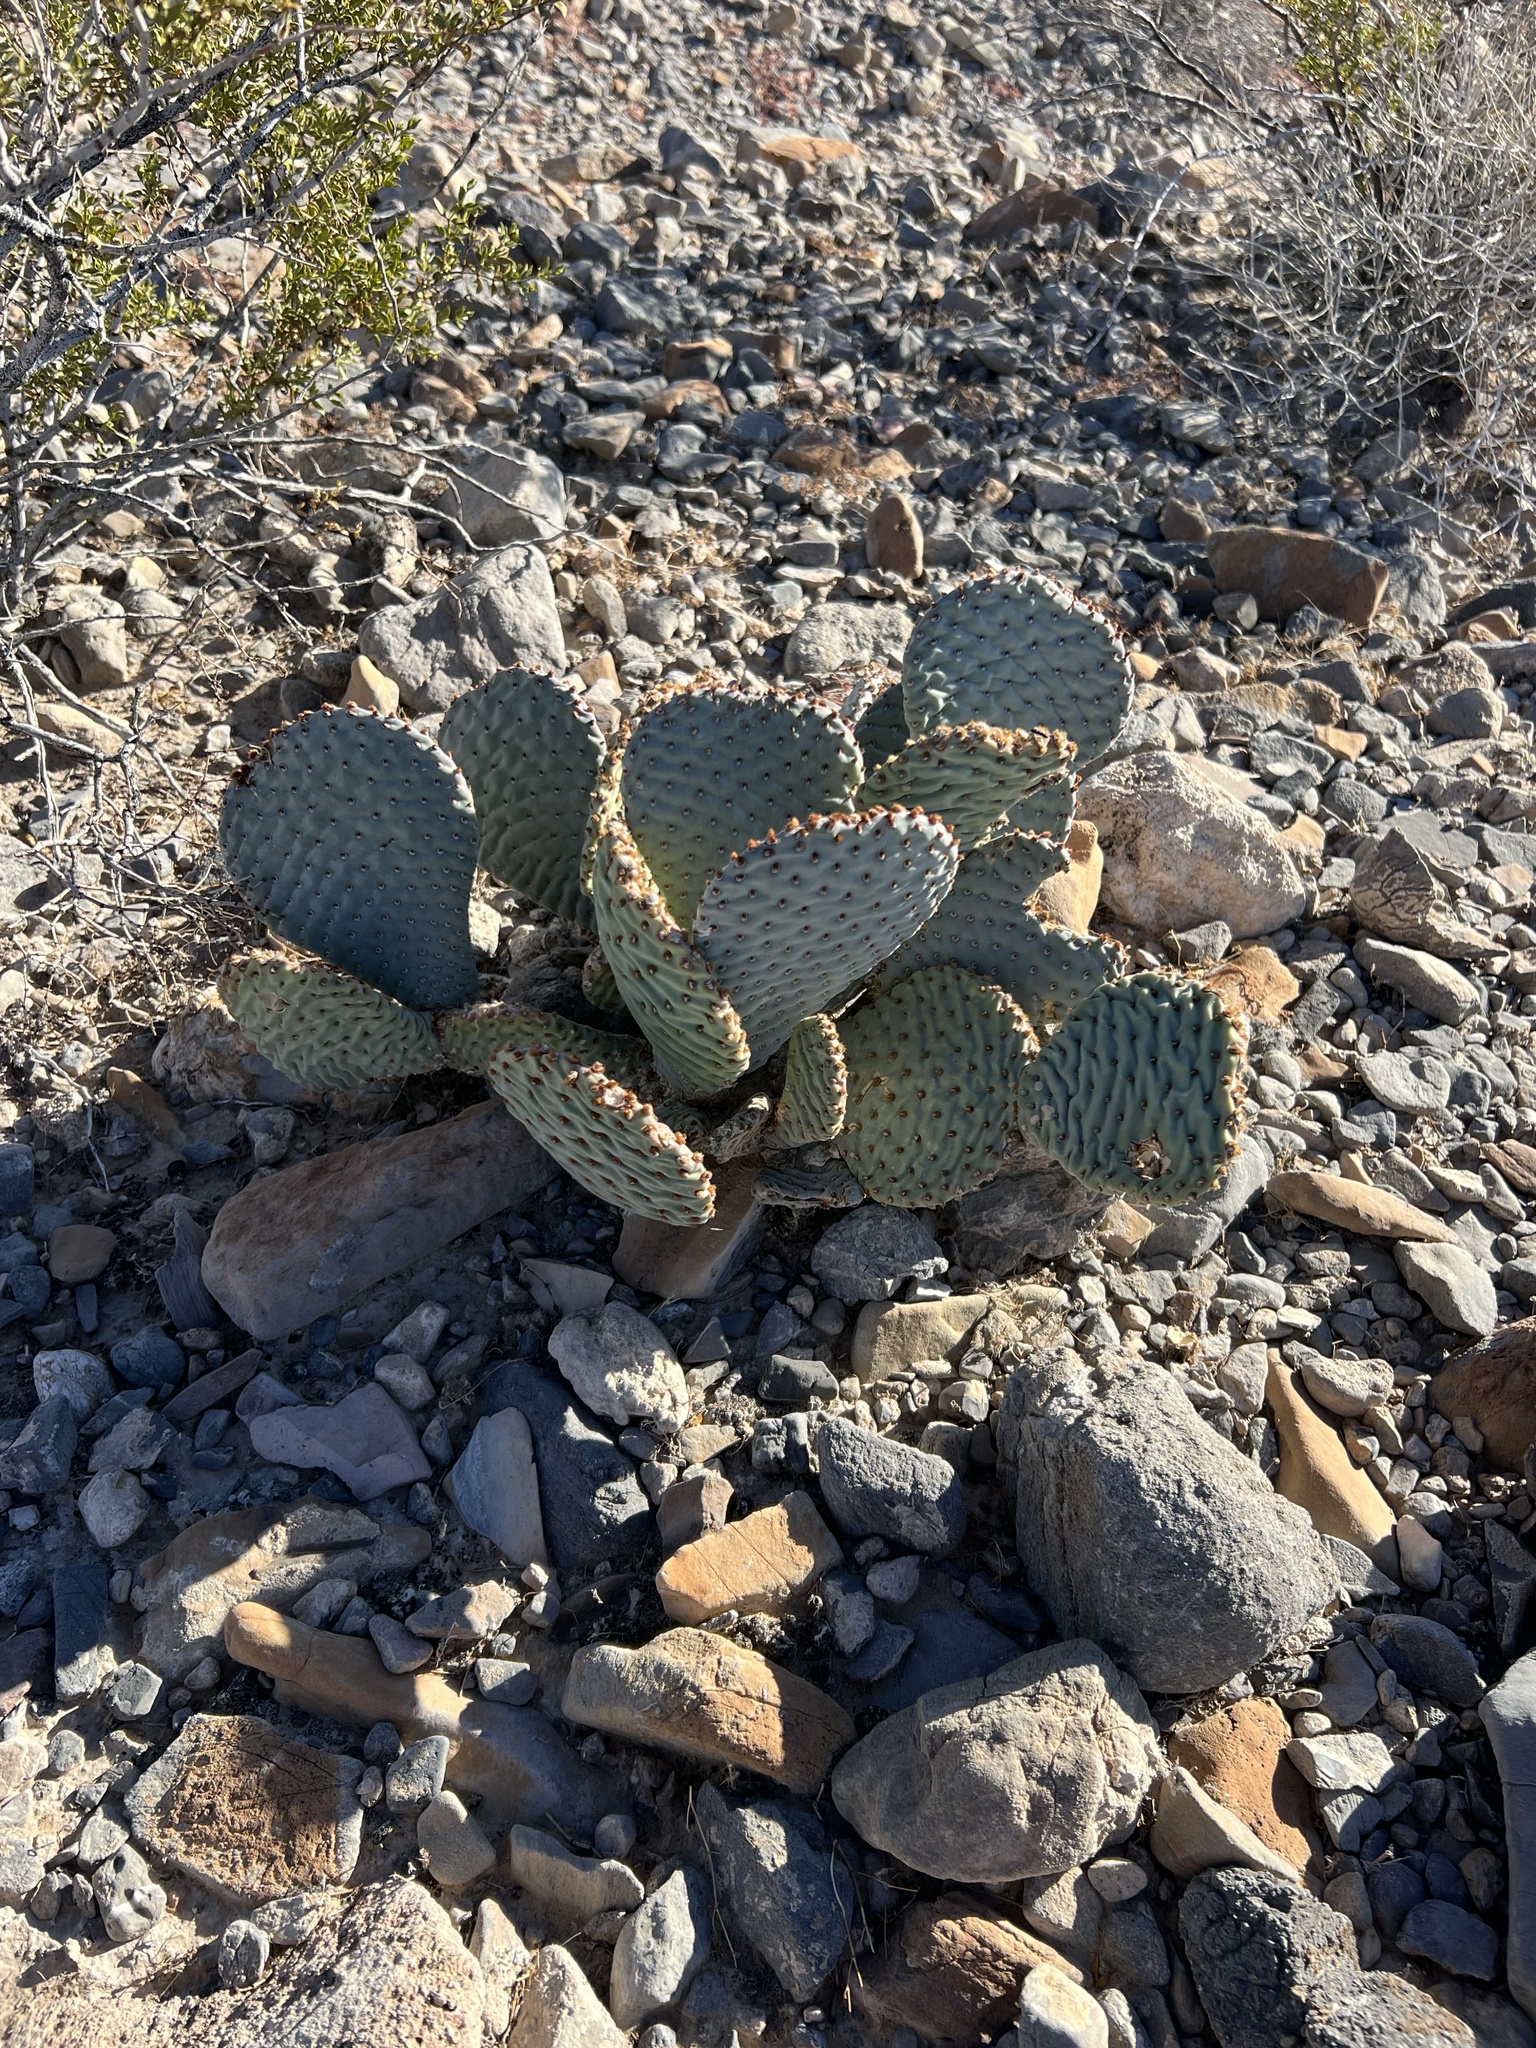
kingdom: Plantae
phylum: Tracheophyta
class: Magnoliopsida
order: Caryophyllales
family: Cactaceae
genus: Opuntia
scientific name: Opuntia basilaris
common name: Beavertail prickly-pear
